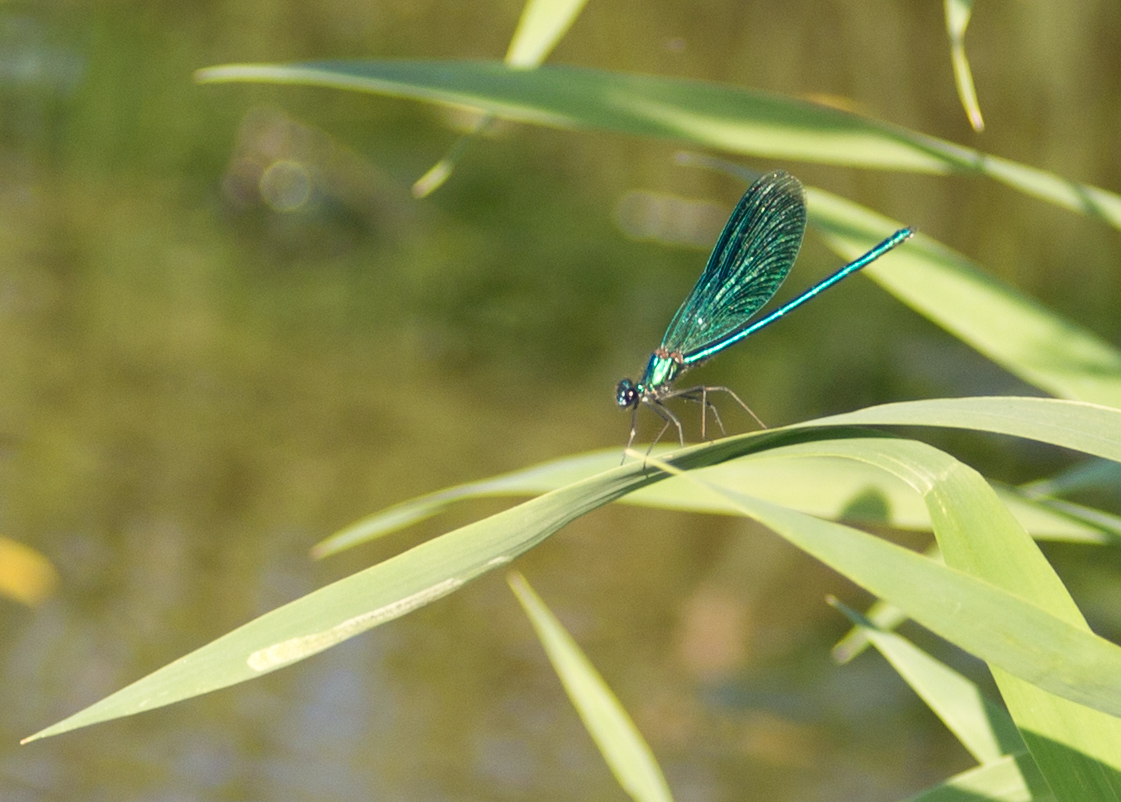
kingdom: Animalia
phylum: Arthropoda
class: Insecta
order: Odonata
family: Calopterygidae
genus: Calopteryx
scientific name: Calopteryx splendens
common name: Banded demoiselle
